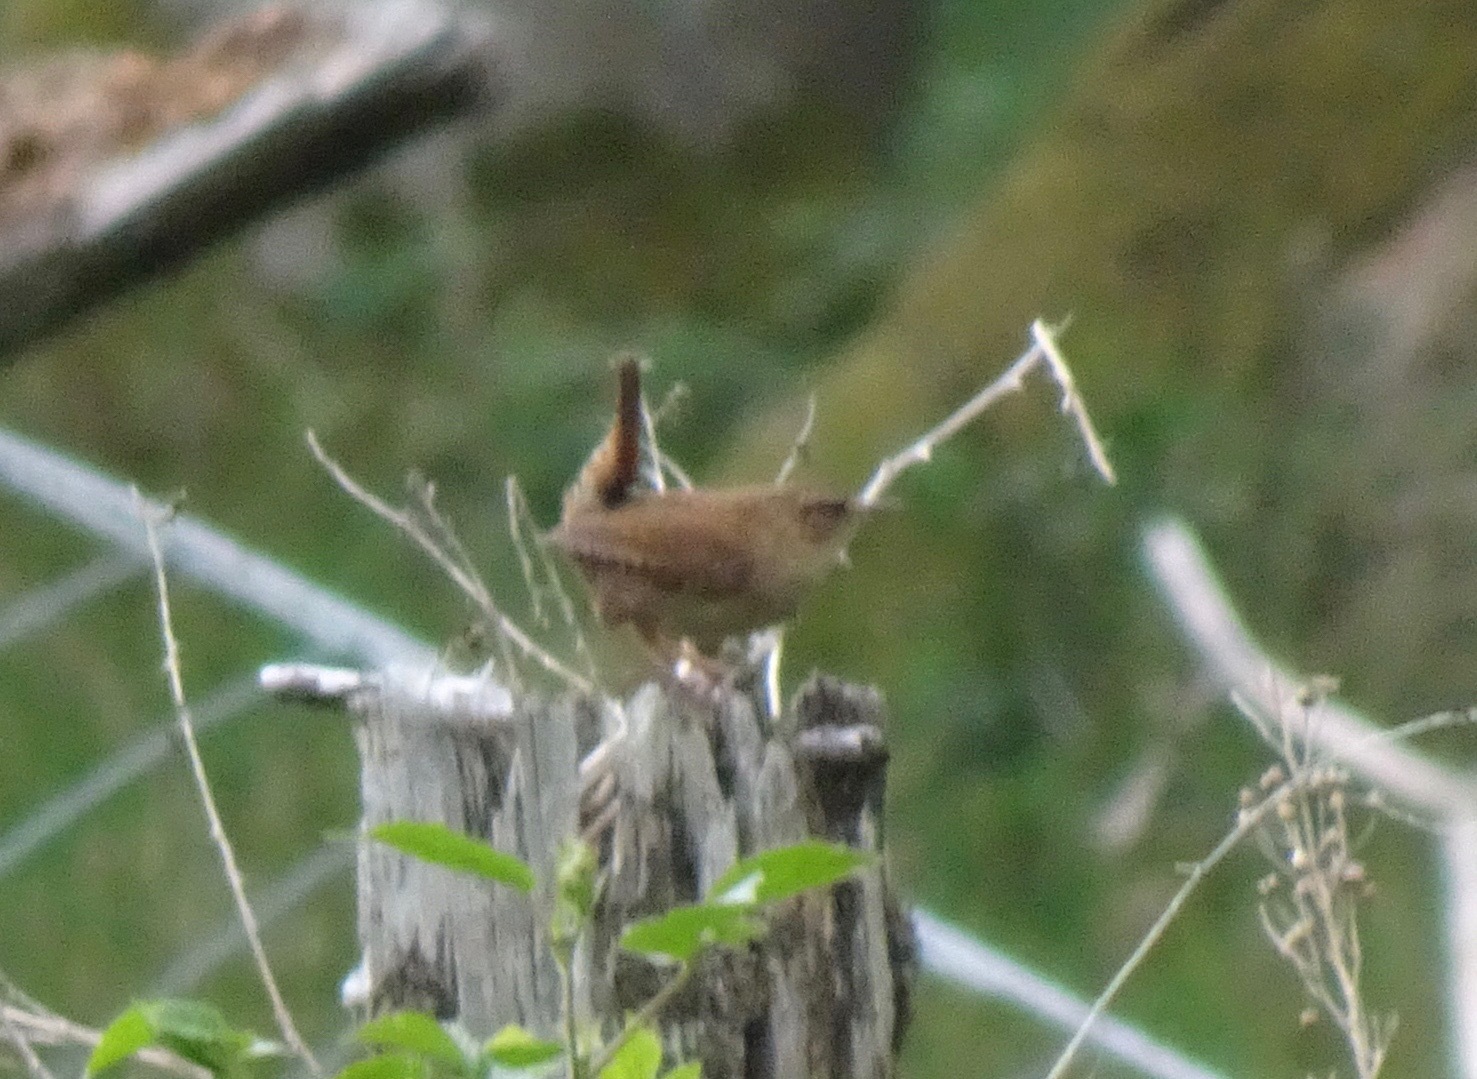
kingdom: Animalia
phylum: Chordata
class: Aves
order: Passeriformes
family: Troglodytidae
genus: Troglodytes
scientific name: Troglodytes troglodytes
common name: Eurasian wren
